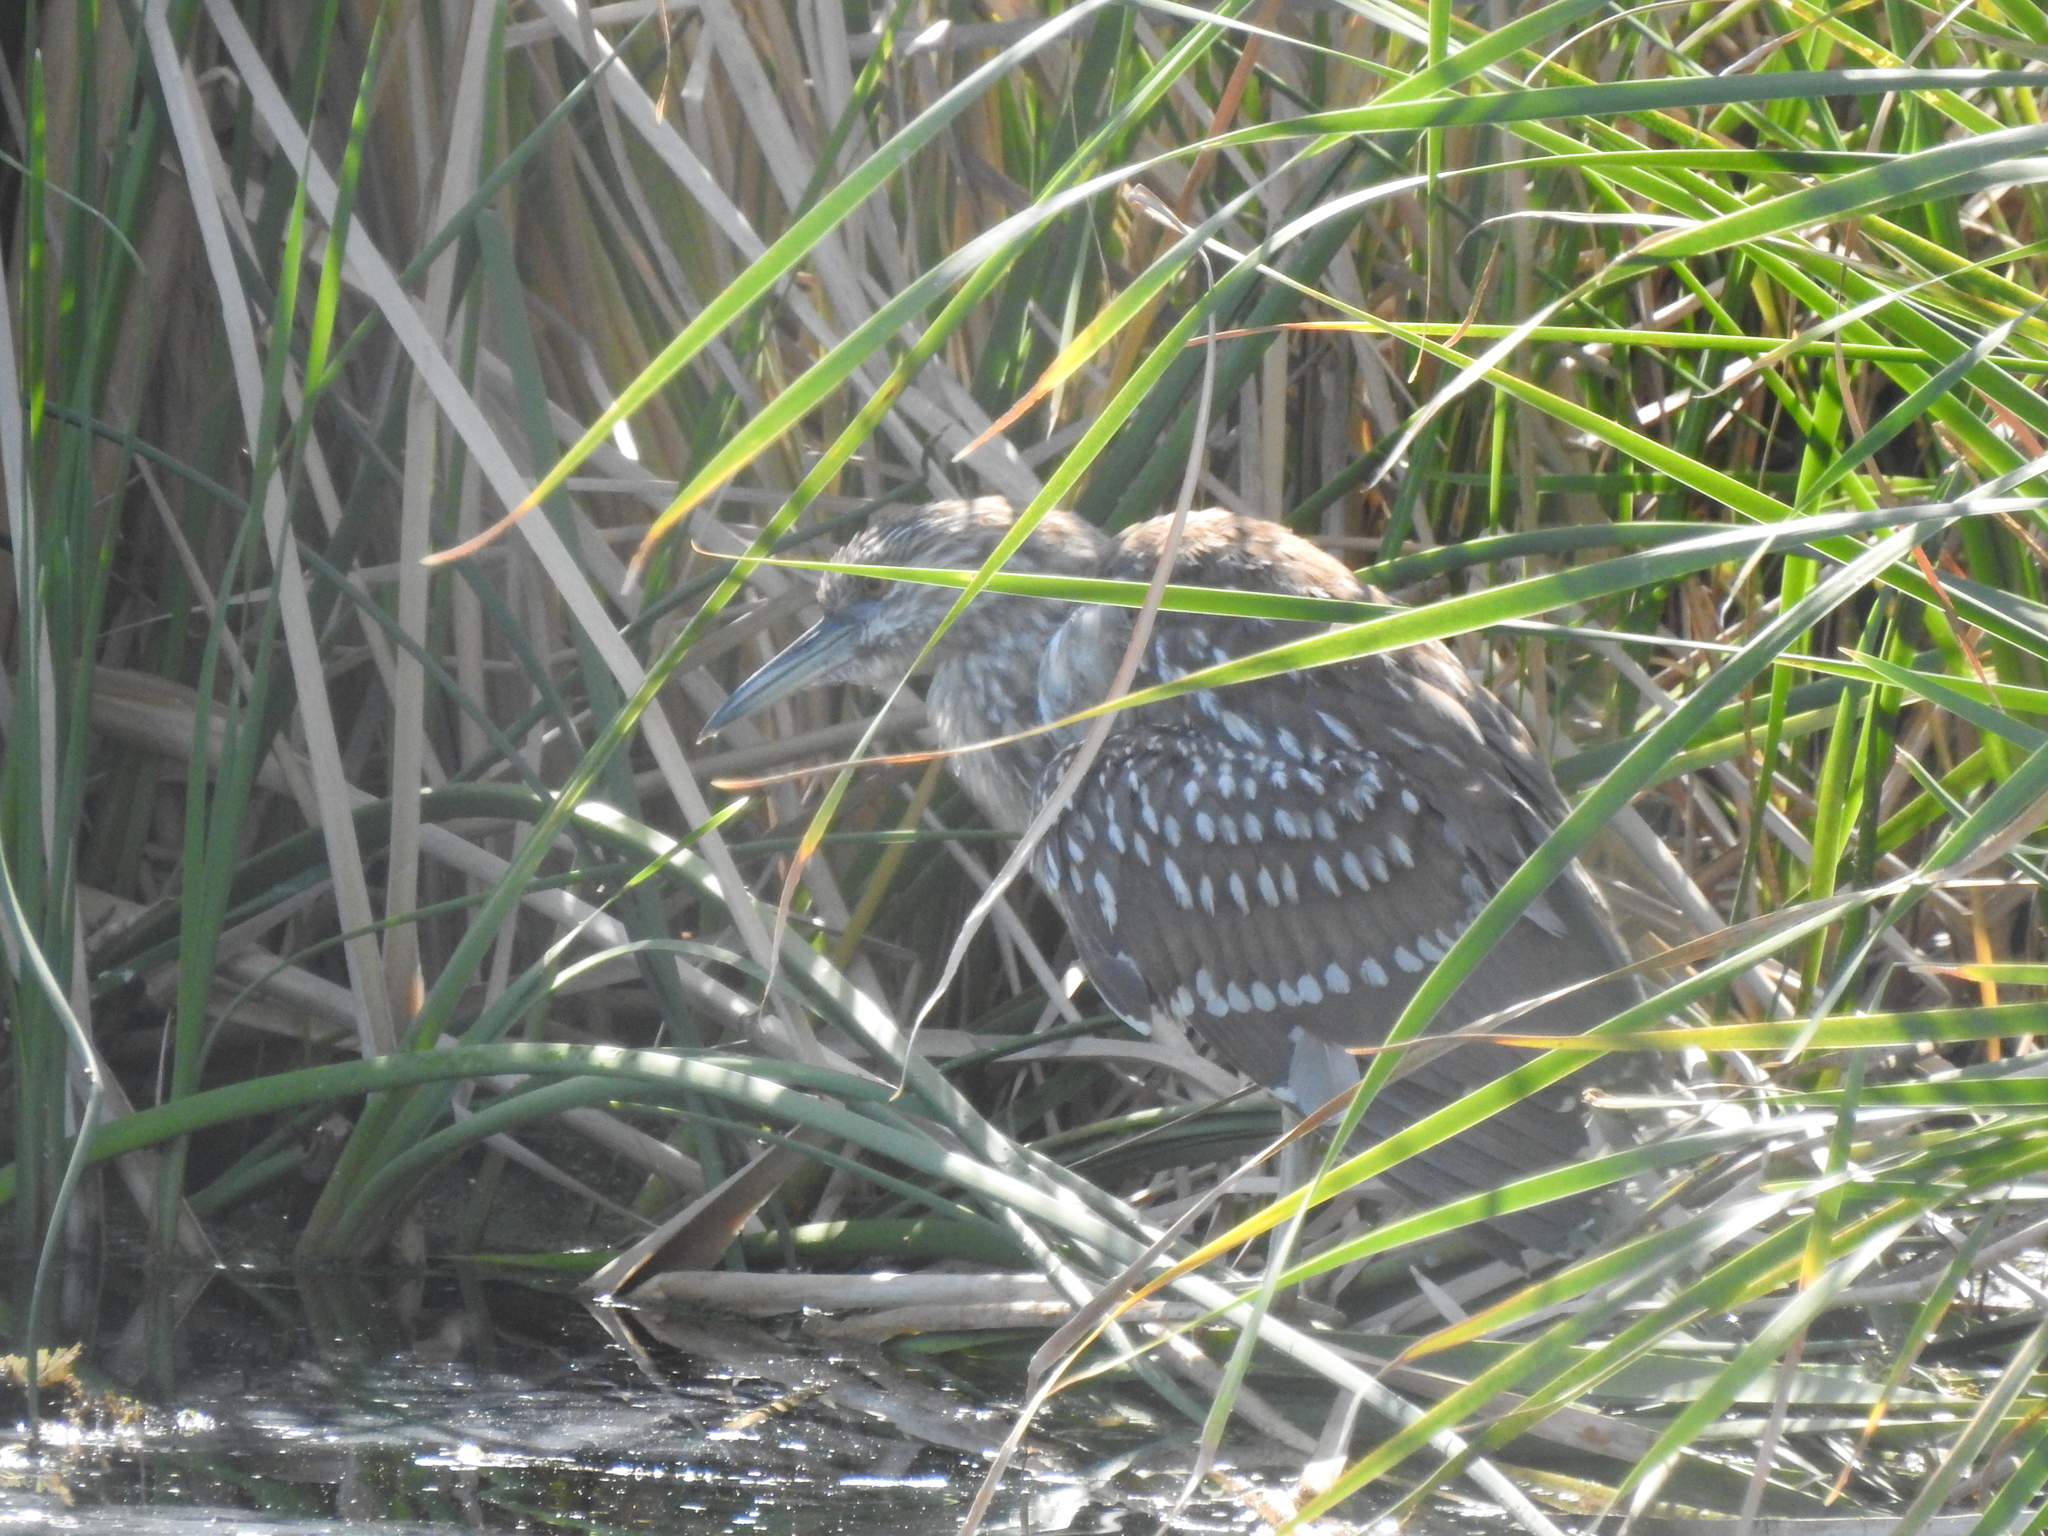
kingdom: Animalia
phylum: Chordata
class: Aves
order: Pelecaniformes
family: Ardeidae
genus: Nycticorax
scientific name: Nycticorax nycticorax
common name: Black-crowned night heron
